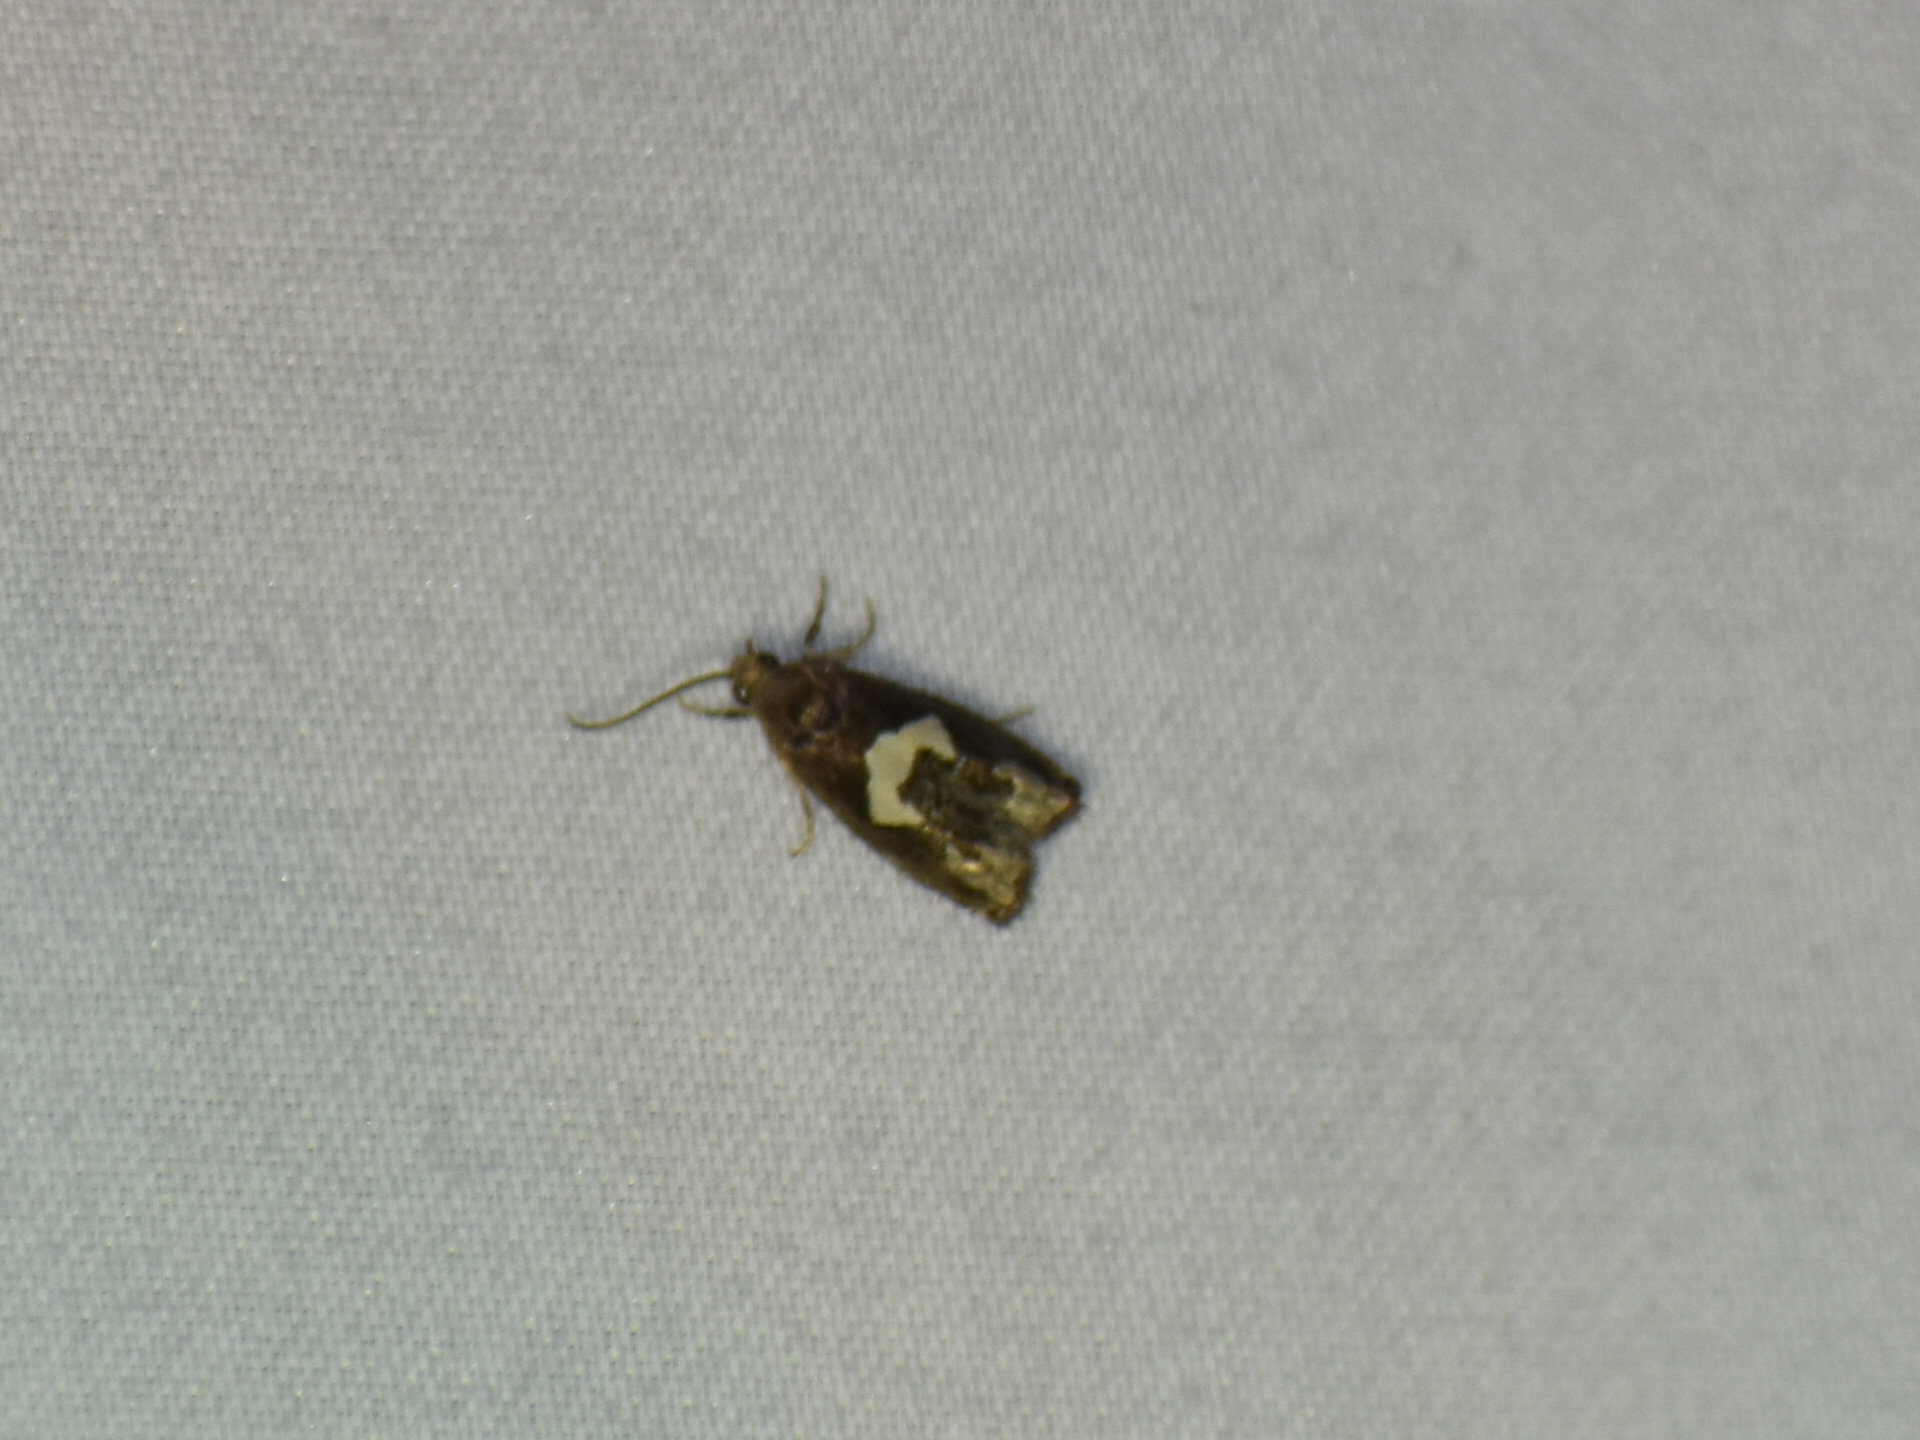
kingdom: Animalia
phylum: Arthropoda
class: Insecta
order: Lepidoptera
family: Tortricidae
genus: Epiblema
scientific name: Epiblema otiosana
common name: Bidens borer moth
